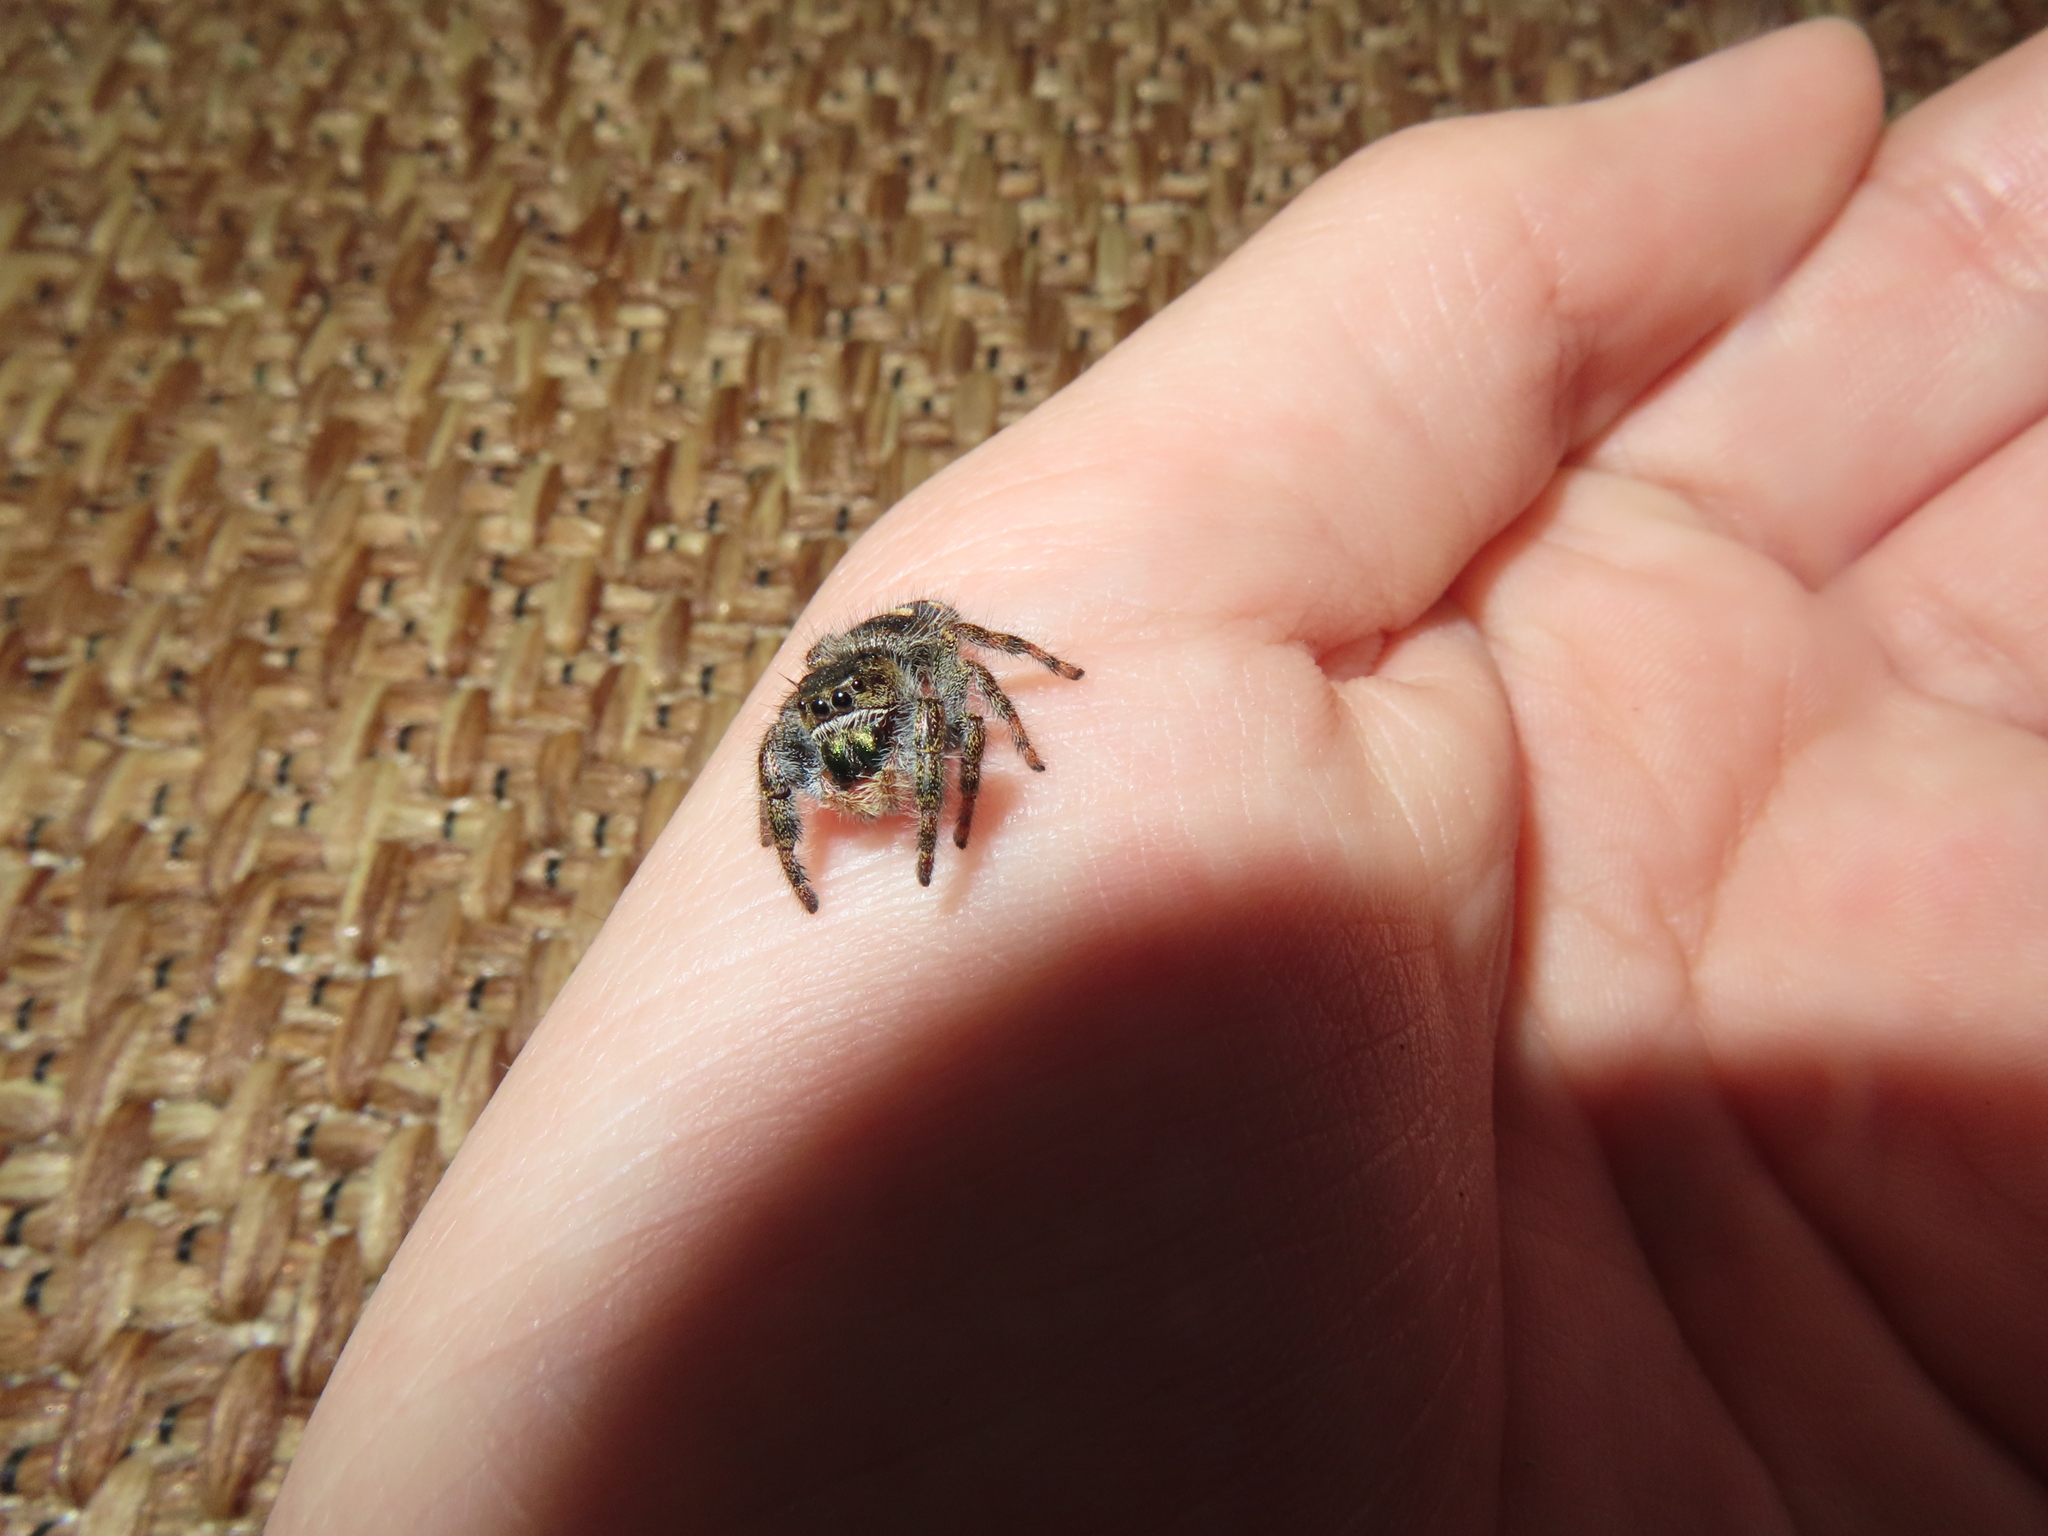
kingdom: Animalia
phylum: Arthropoda
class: Arachnida
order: Araneae
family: Salticidae
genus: Phidippus
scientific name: Phidippus audax
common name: Bold jumper
